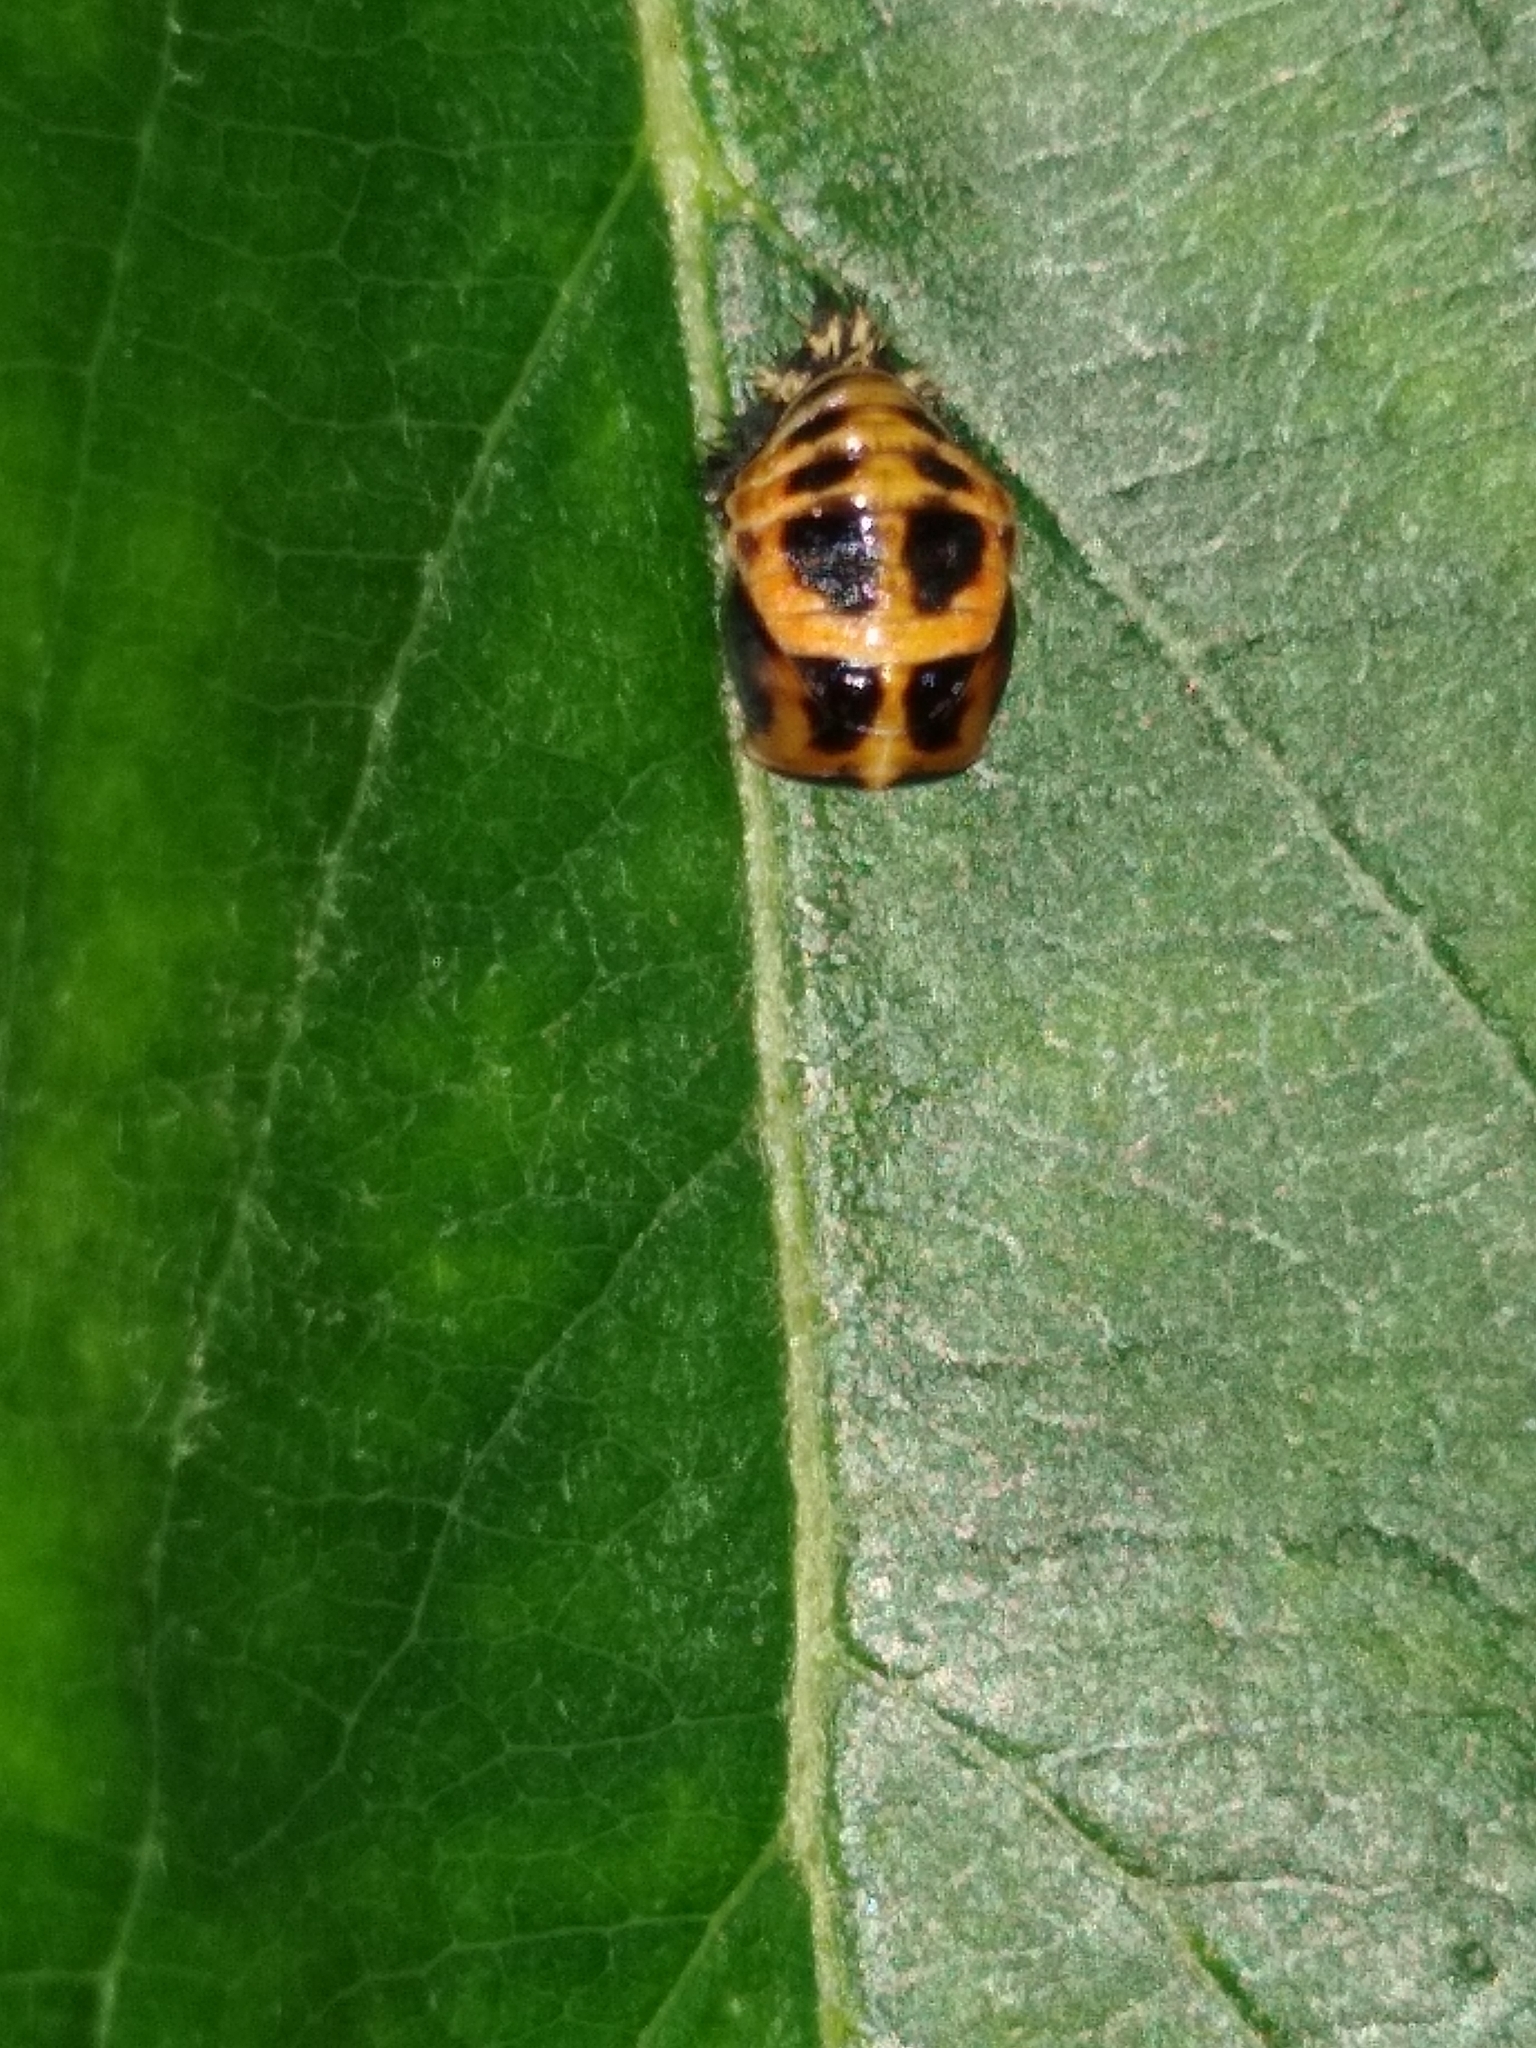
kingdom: Animalia
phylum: Arthropoda
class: Insecta
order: Coleoptera
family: Coccinellidae
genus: Harmonia
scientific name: Harmonia axyridis
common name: Harlequin ladybird
